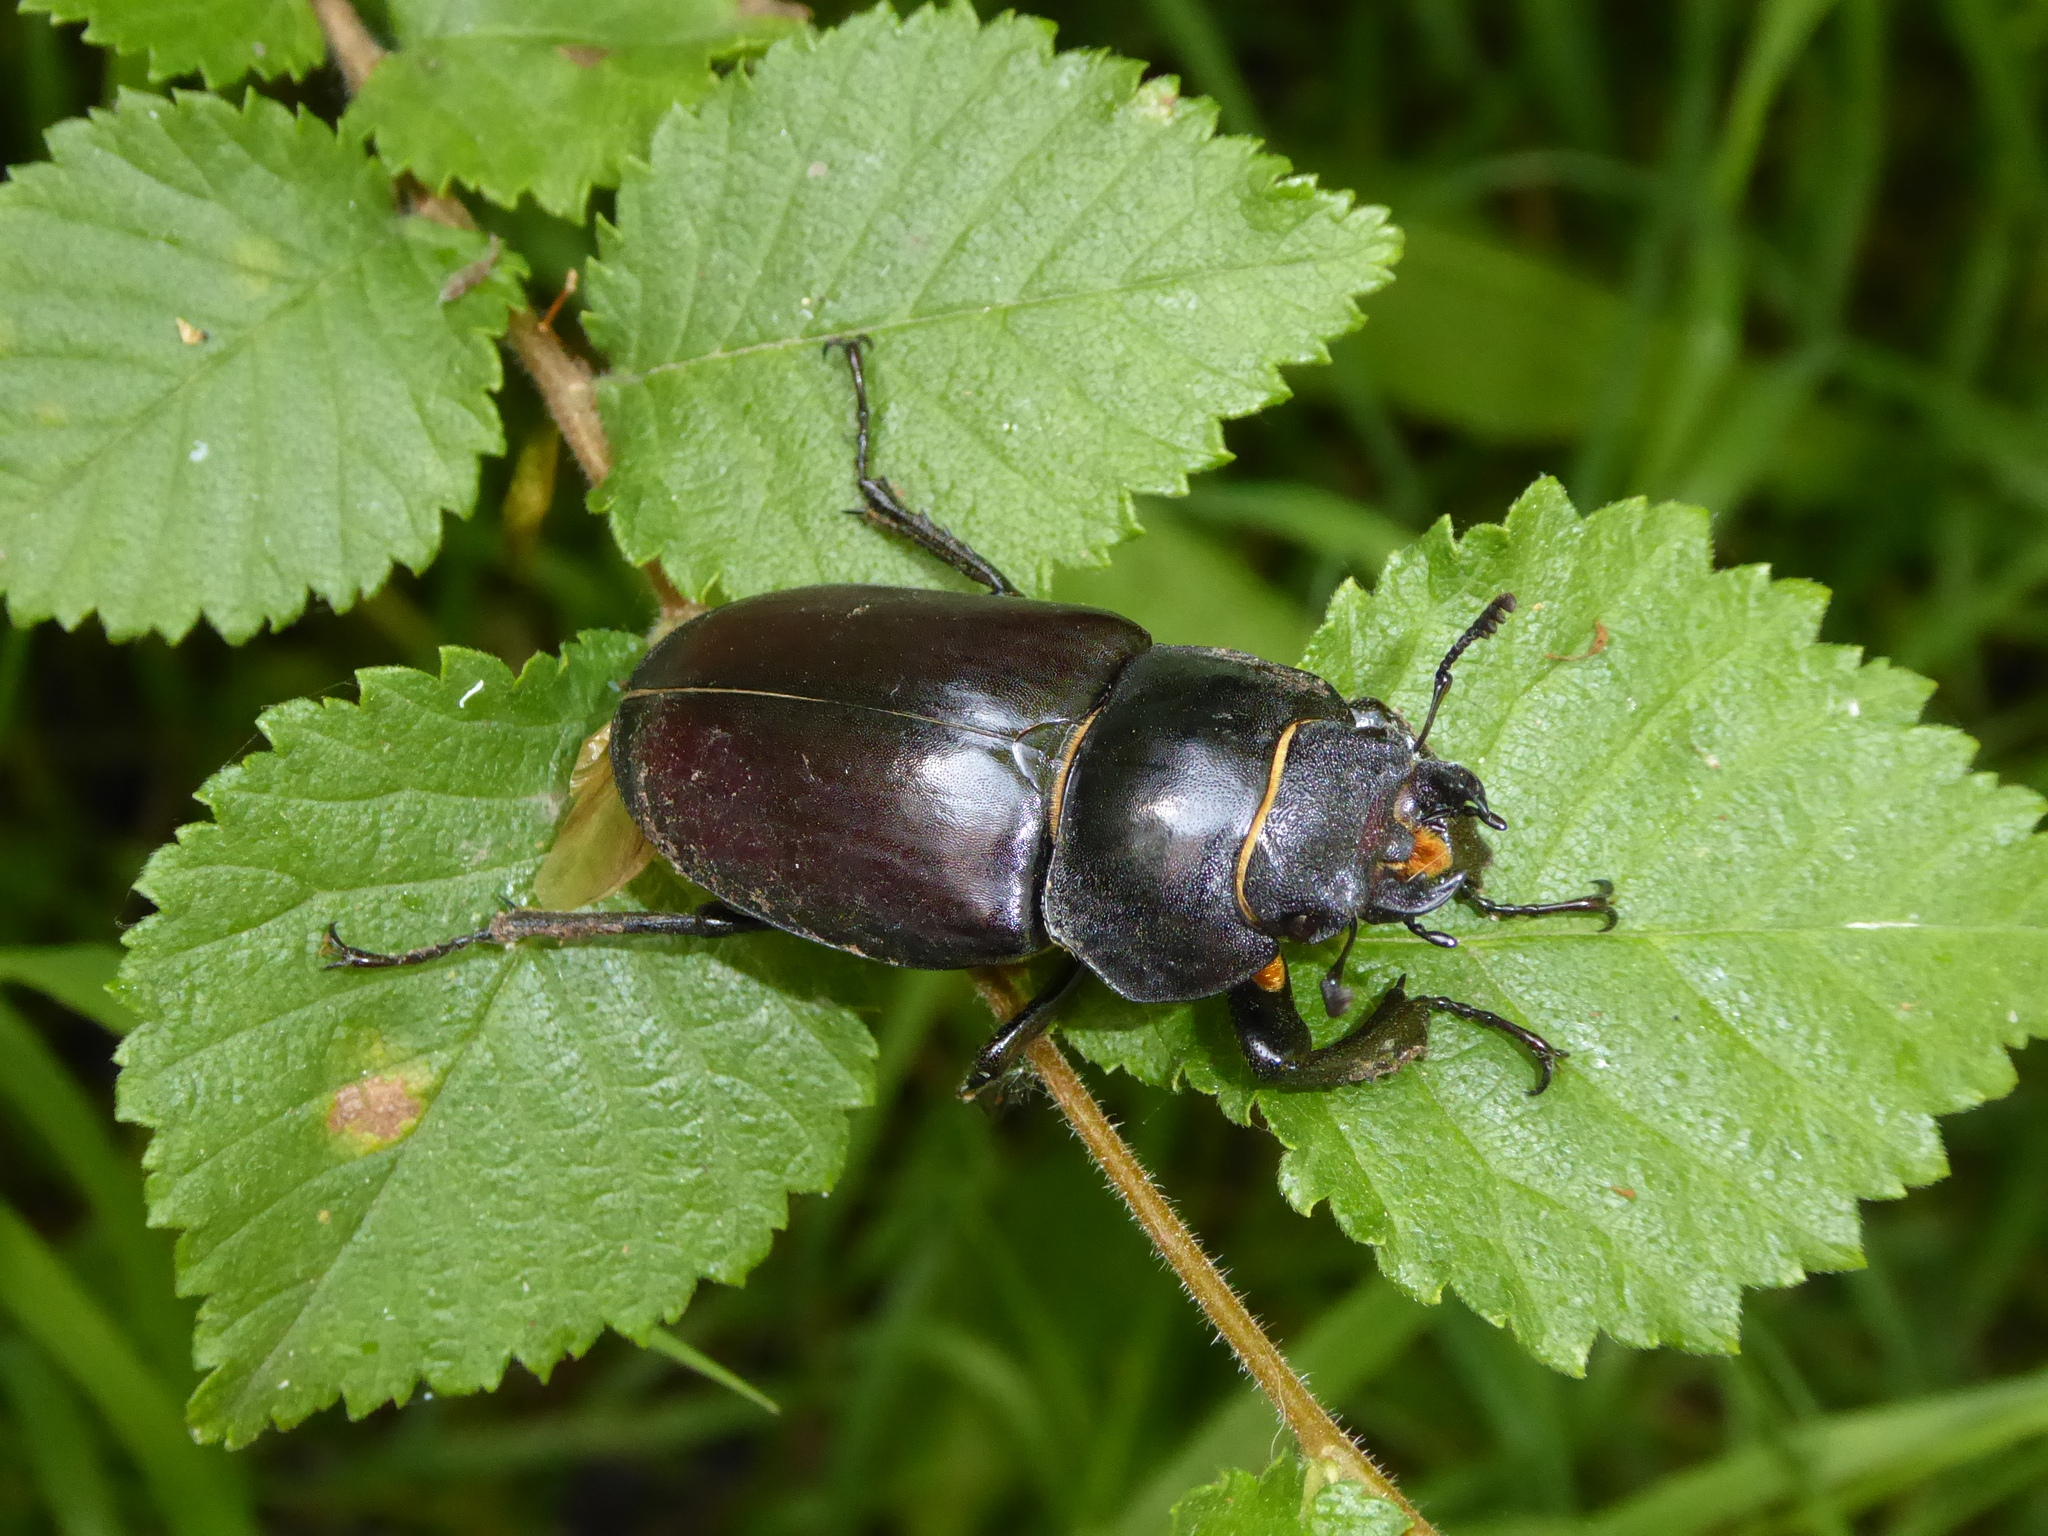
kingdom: Animalia
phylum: Arthropoda
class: Insecta
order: Coleoptera
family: Lucanidae
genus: Lucanus
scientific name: Lucanus cervus
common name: Stag beetle
